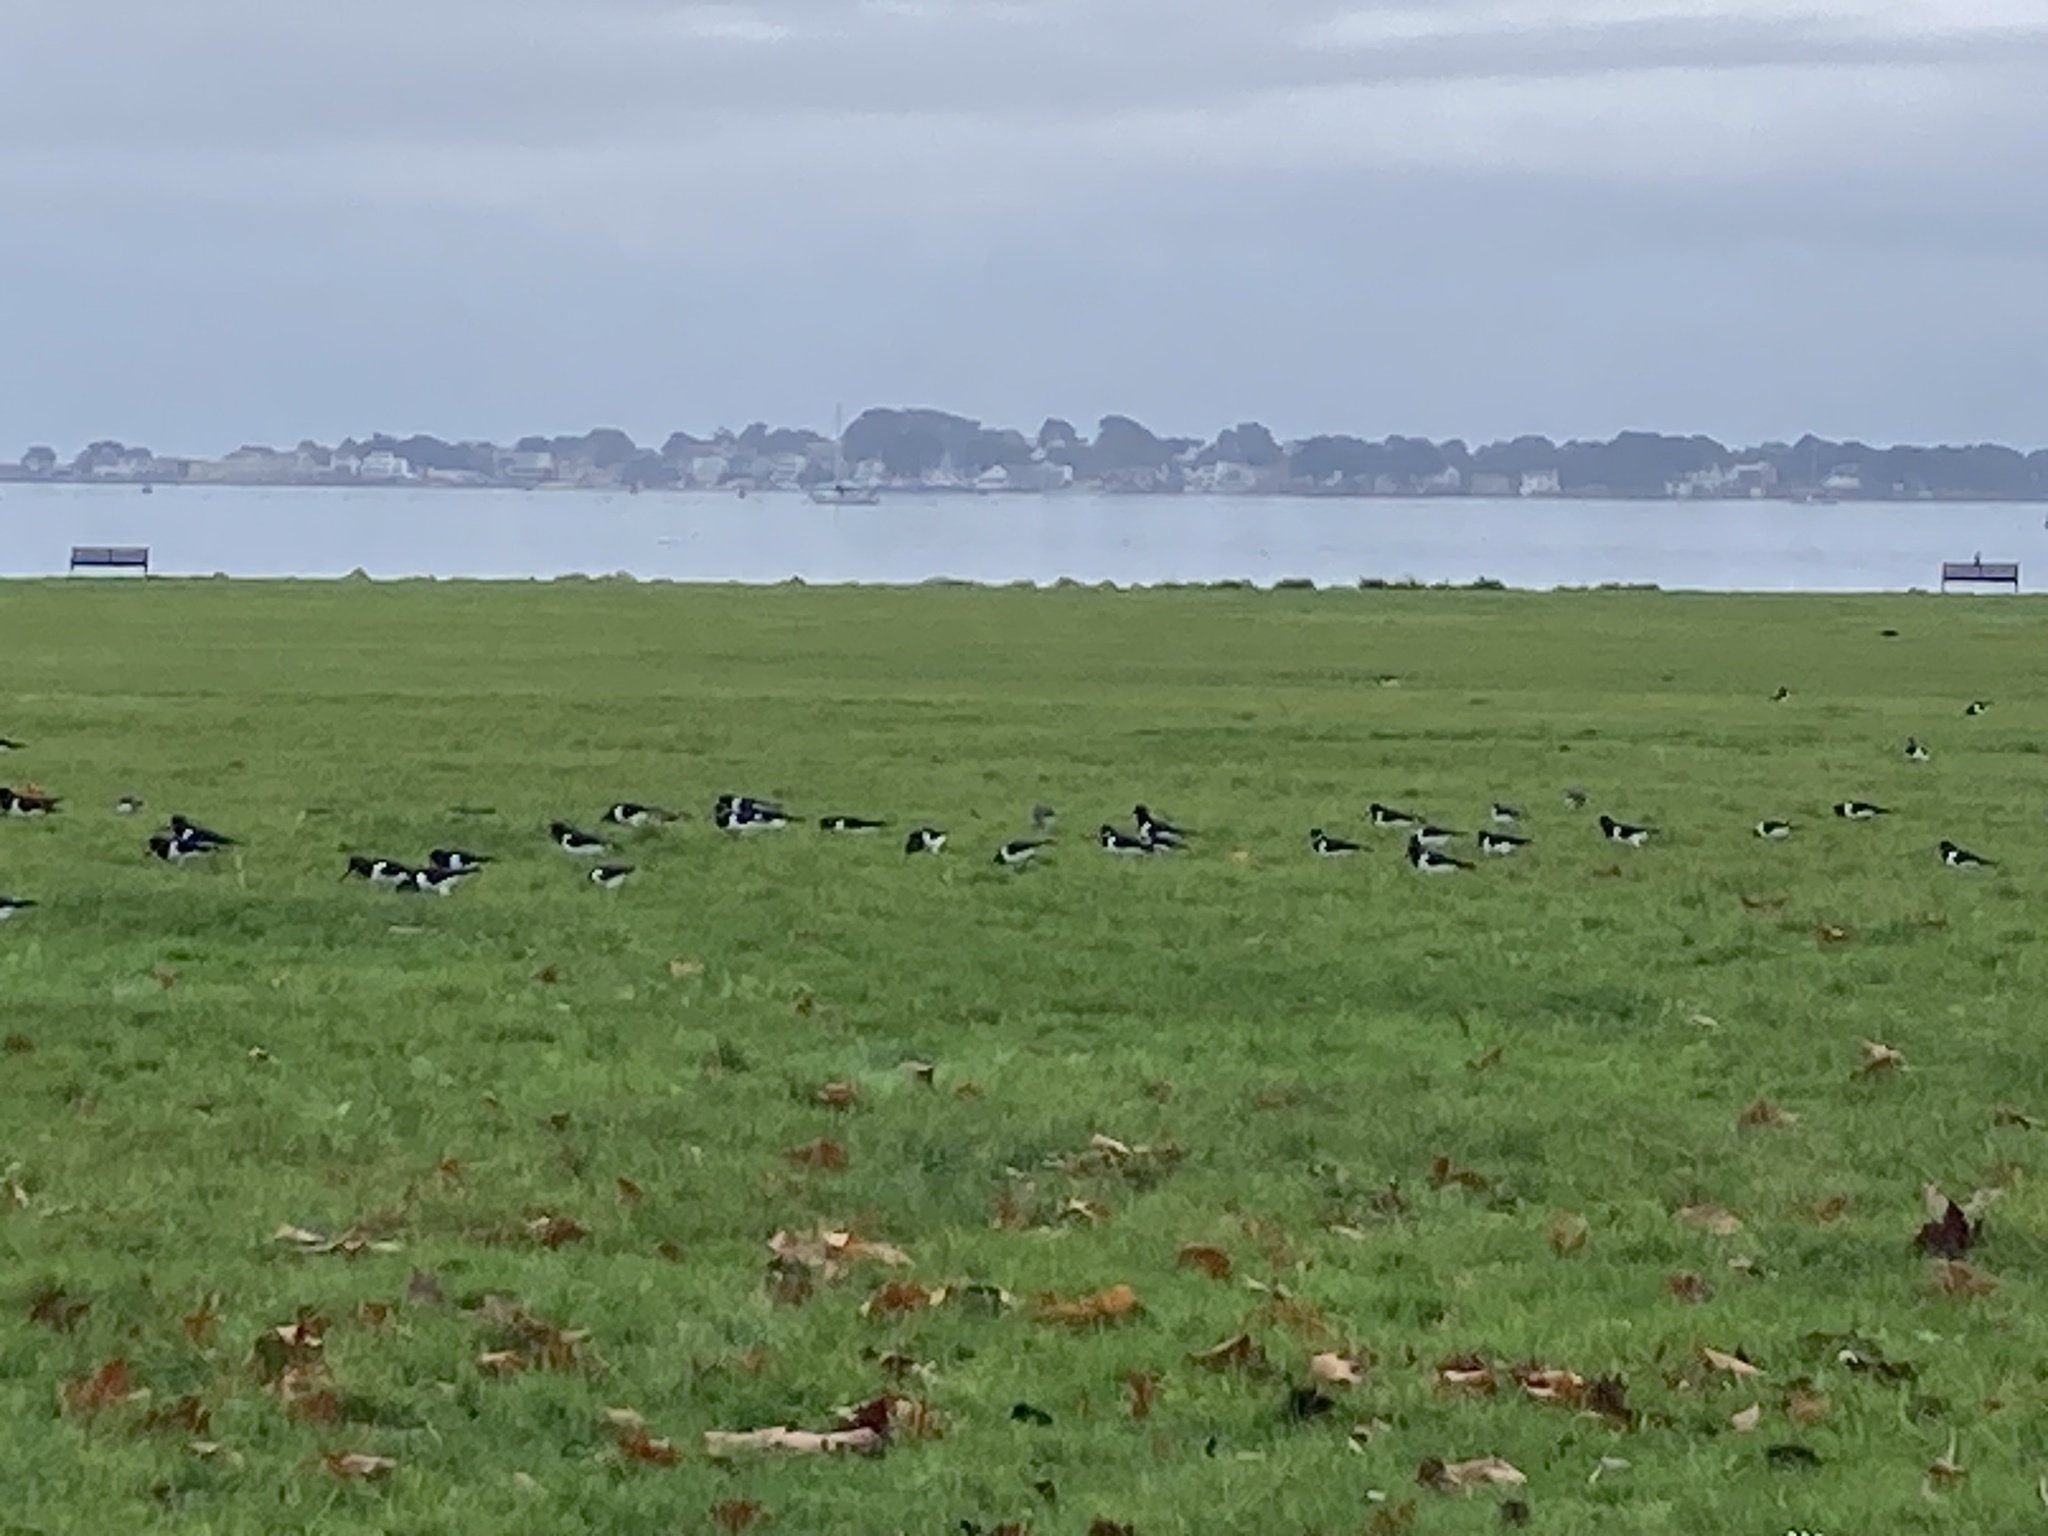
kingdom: Animalia
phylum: Chordata
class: Aves
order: Charadriiformes
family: Haematopodidae
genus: Haematopus
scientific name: Haematopus ostralegus
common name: Eurasian oystercatcher
